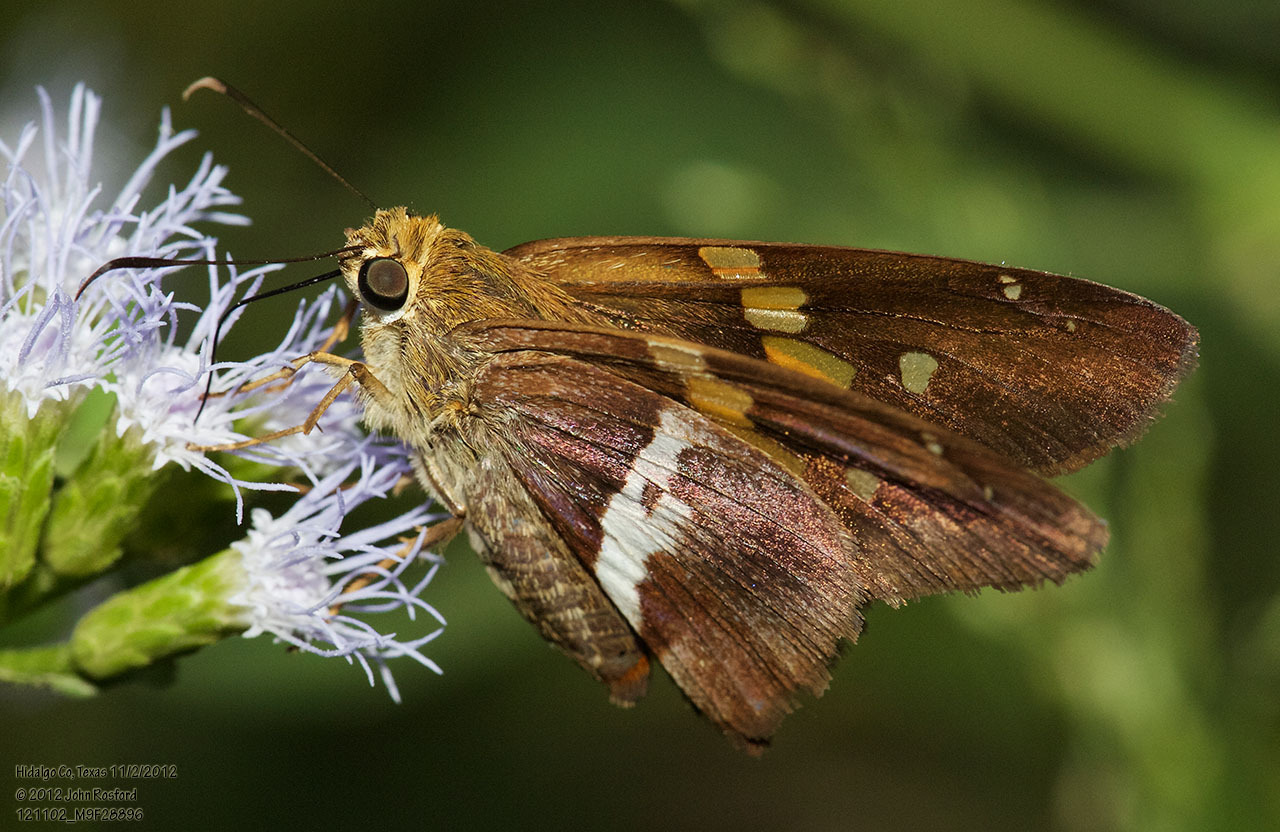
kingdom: Animalia
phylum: Arthropoda
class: Insecta
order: Lepidoptera
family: Hesperiidae
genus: Aguna
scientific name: Aguna asander
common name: Gold-spotted aguna
